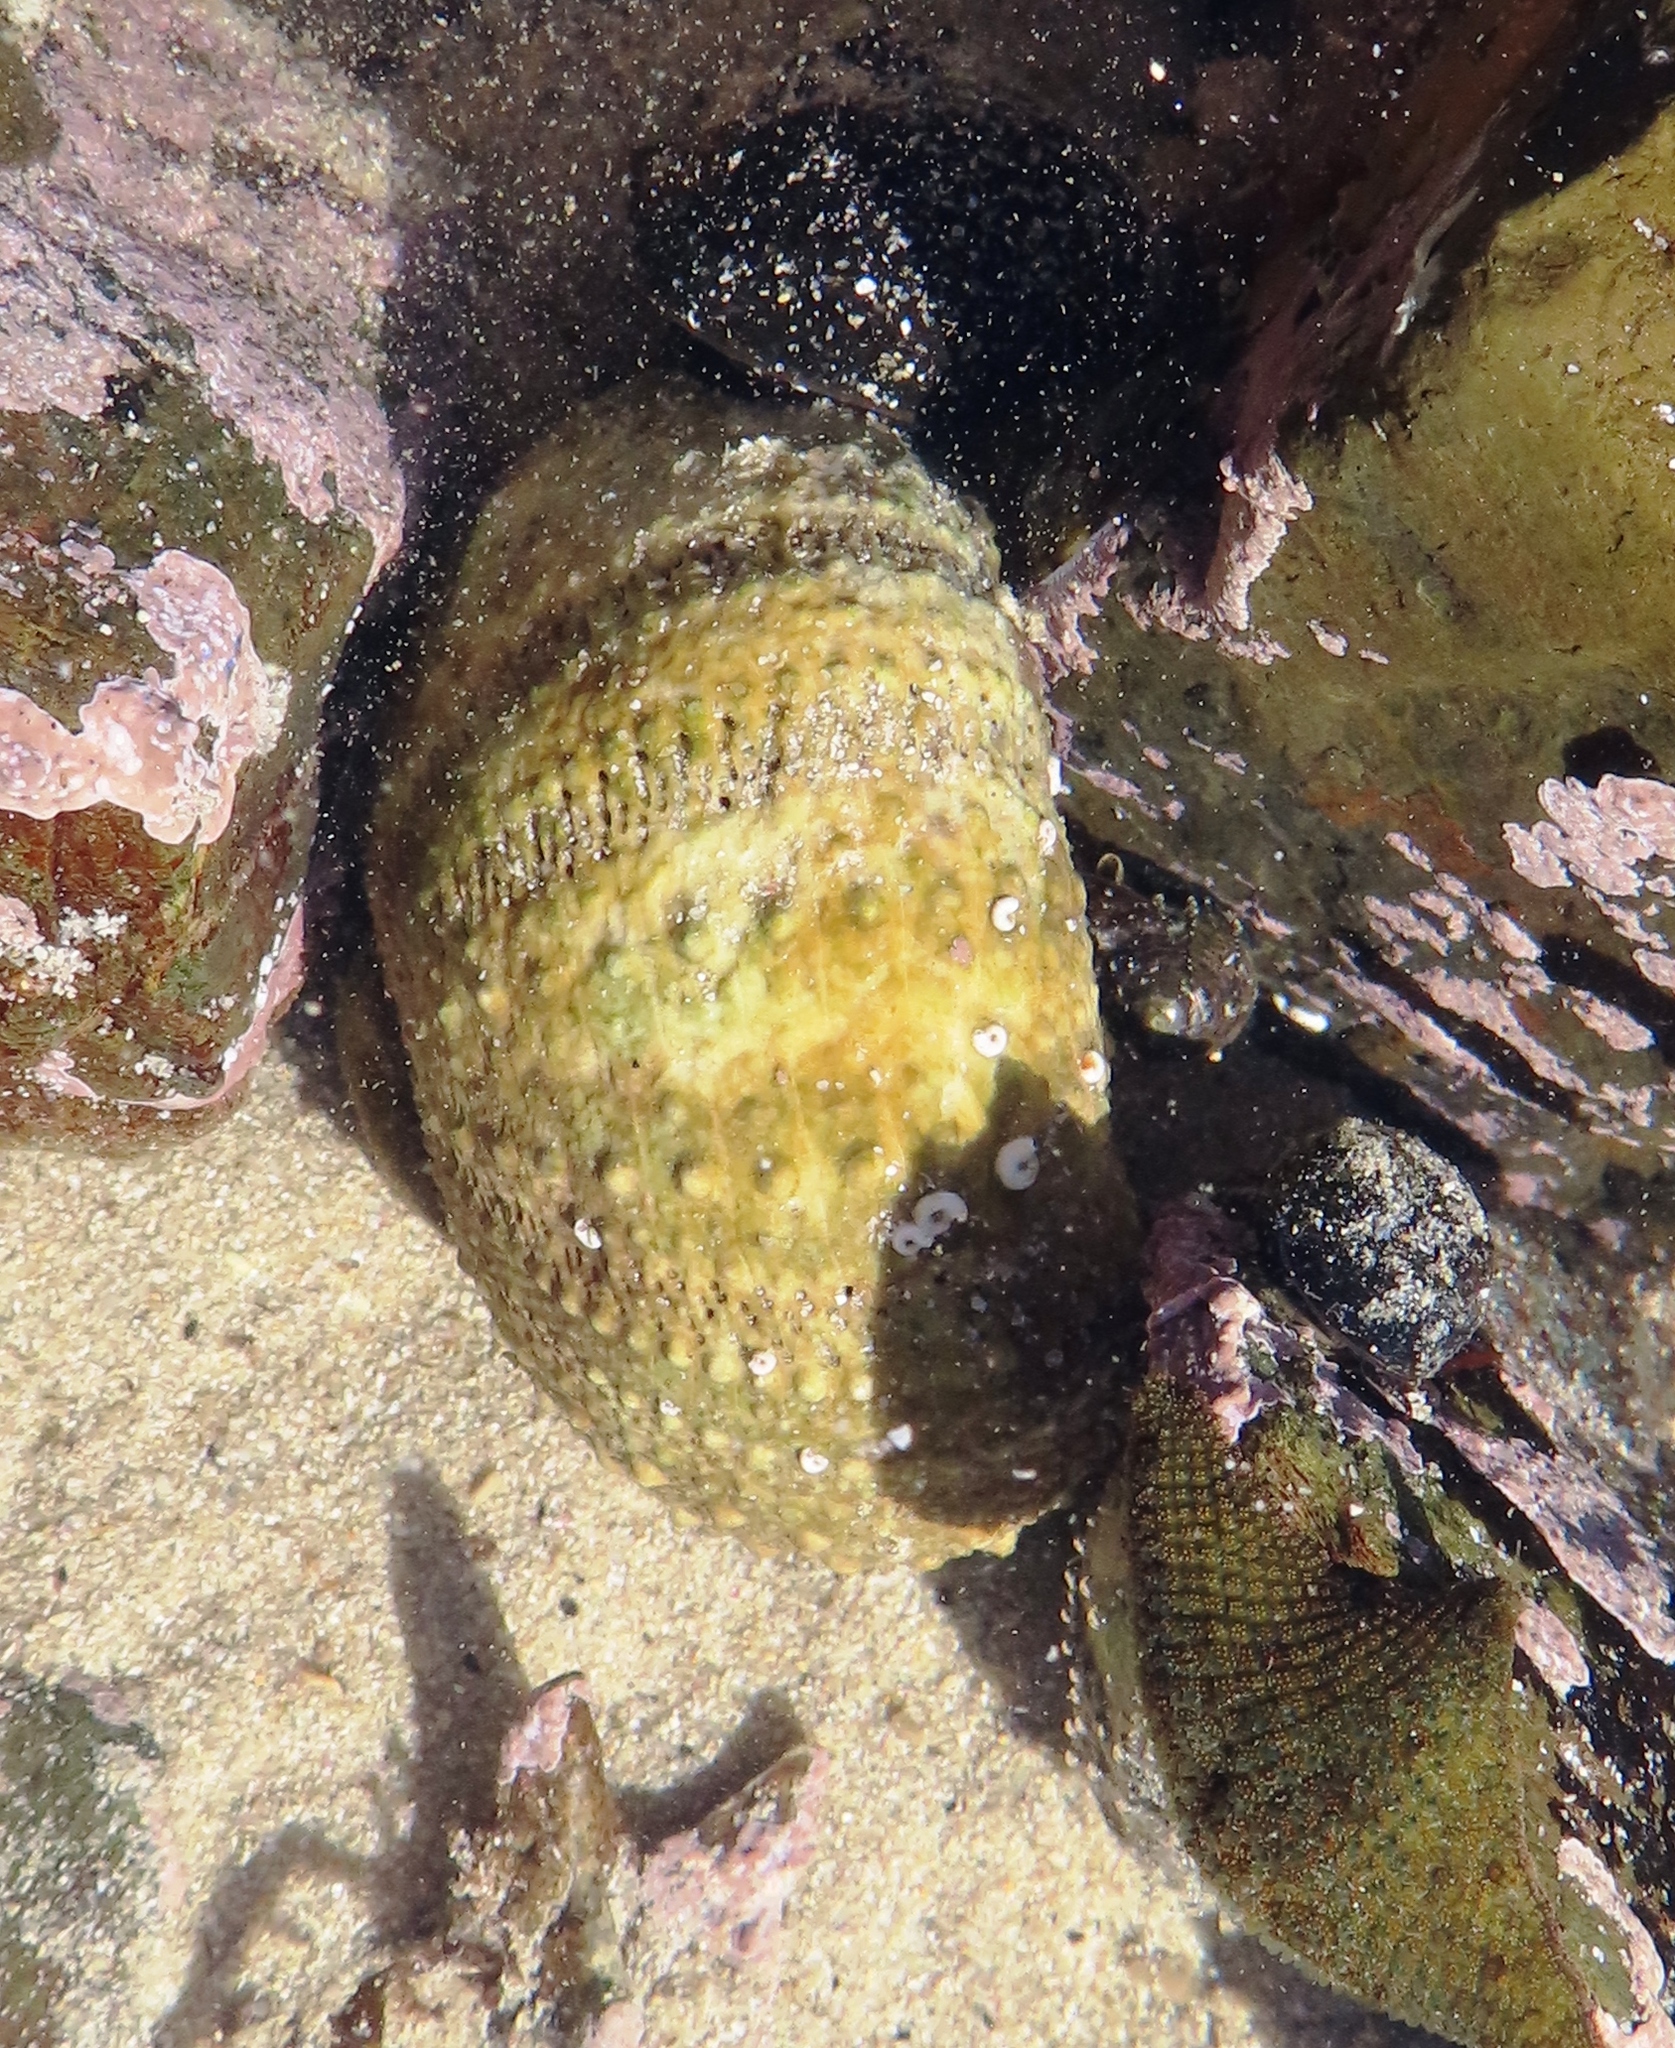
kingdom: Animalia
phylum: Echinodermata
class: Echinoidea
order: Camarodonta
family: Parechinidae
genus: Parechinus
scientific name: Parechinus angulosus
